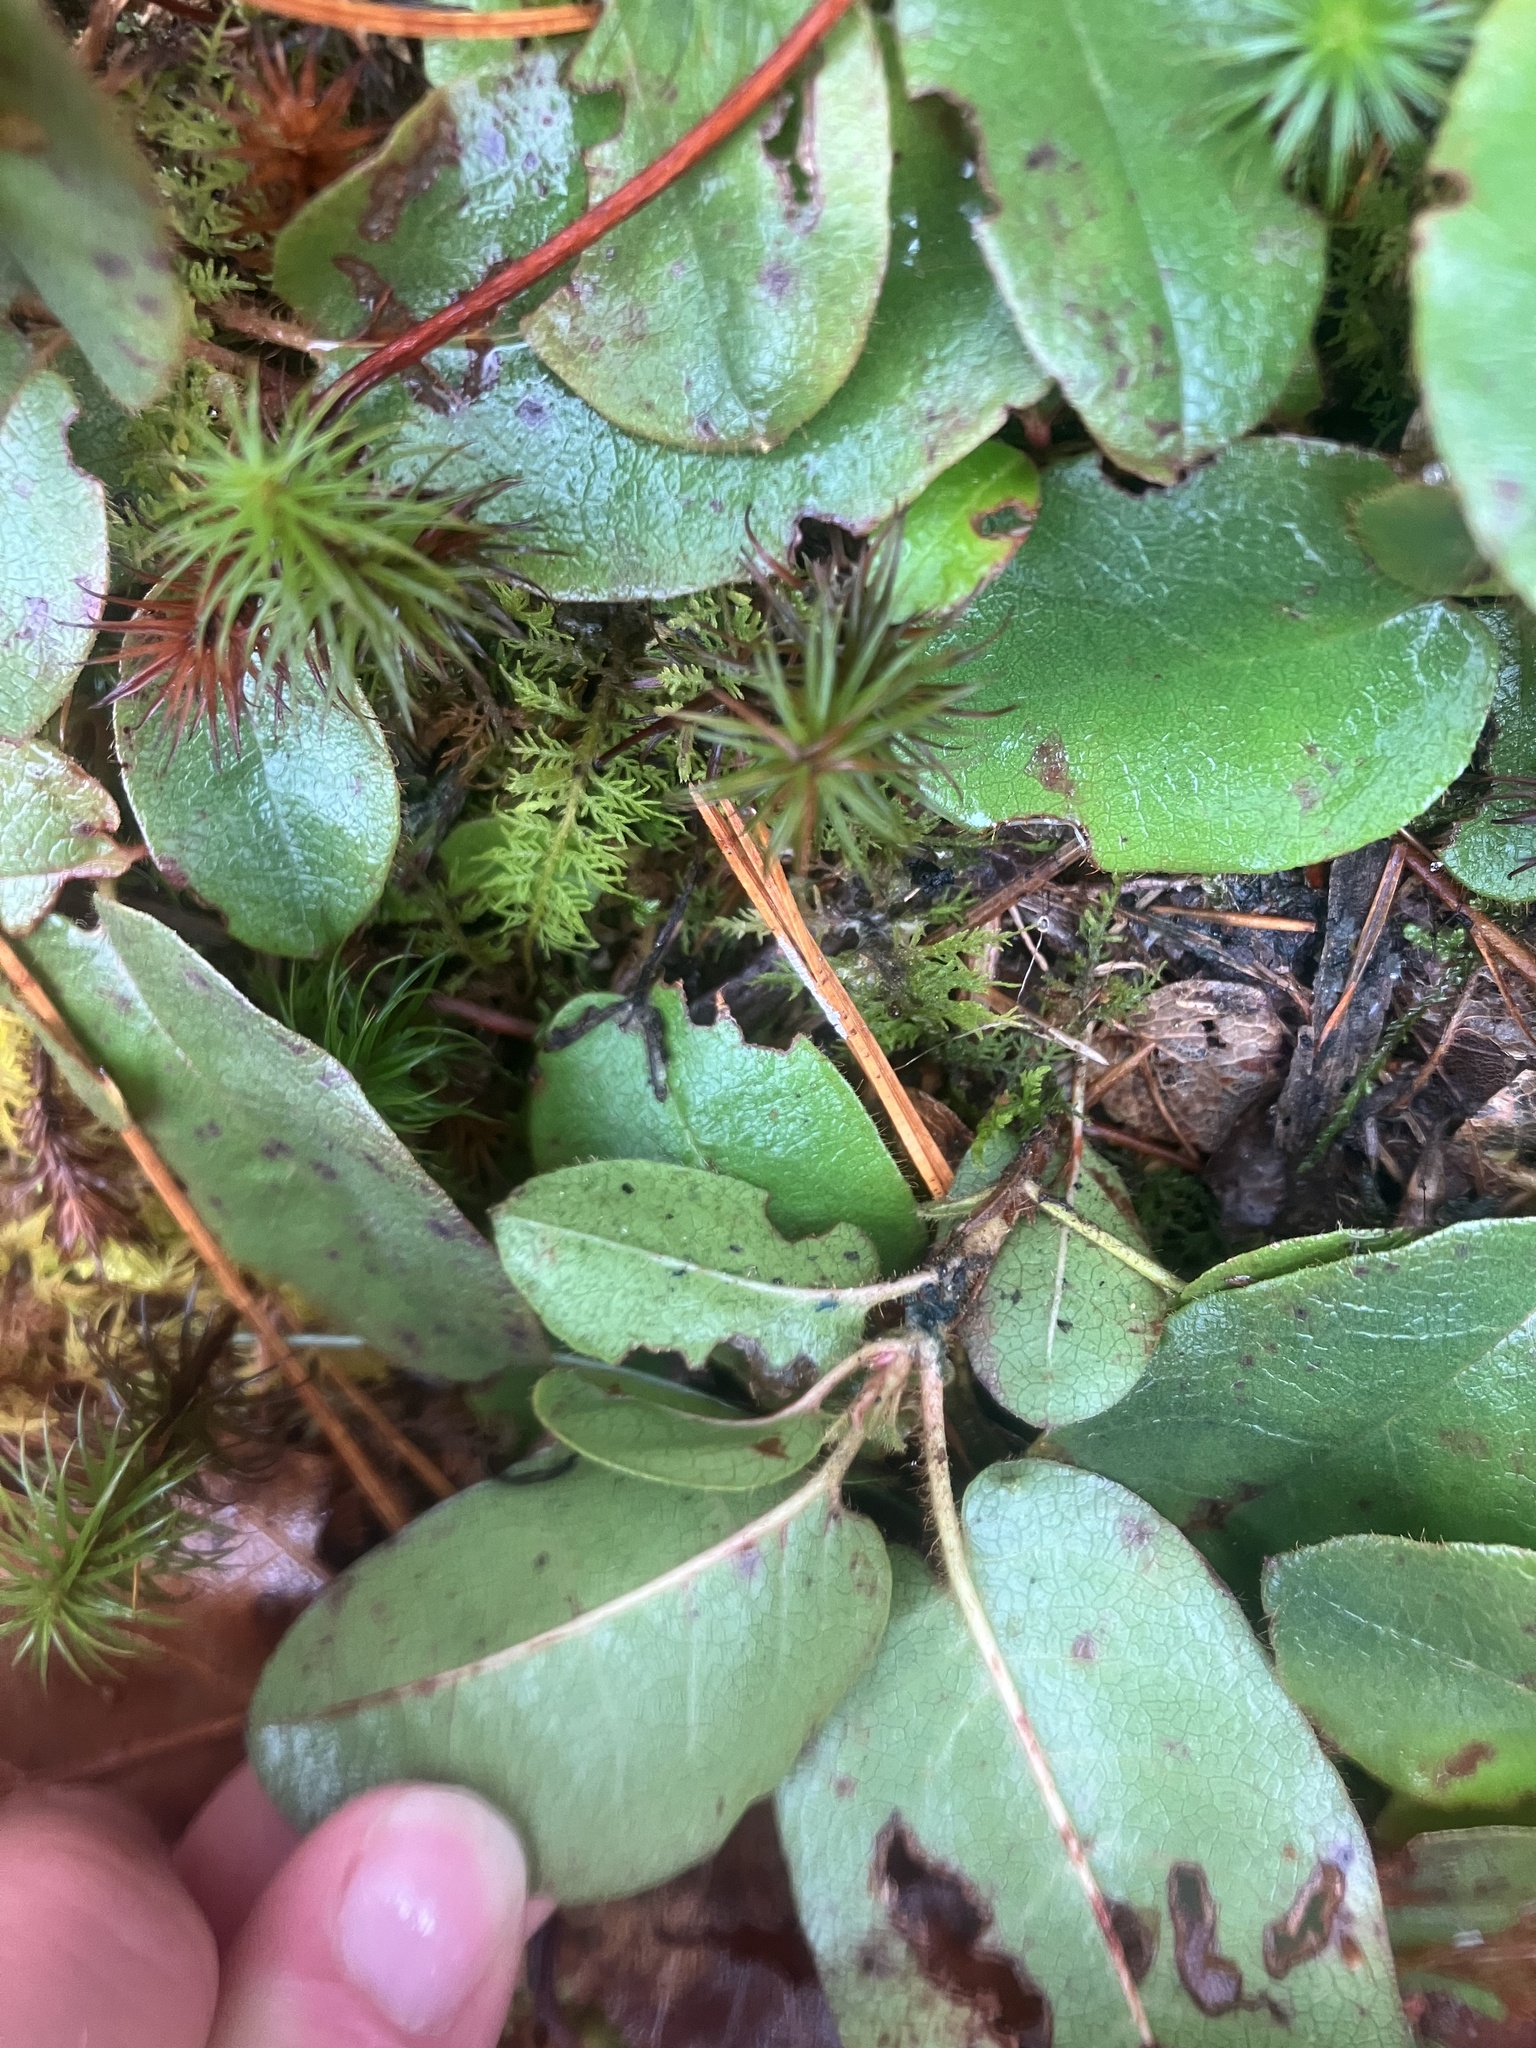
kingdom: Plantae
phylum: Tracheophyta
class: Magnoliopsida
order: Ericales
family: Ericaceae
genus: Epigaea
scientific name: Epigaea repens
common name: Gravelroot
